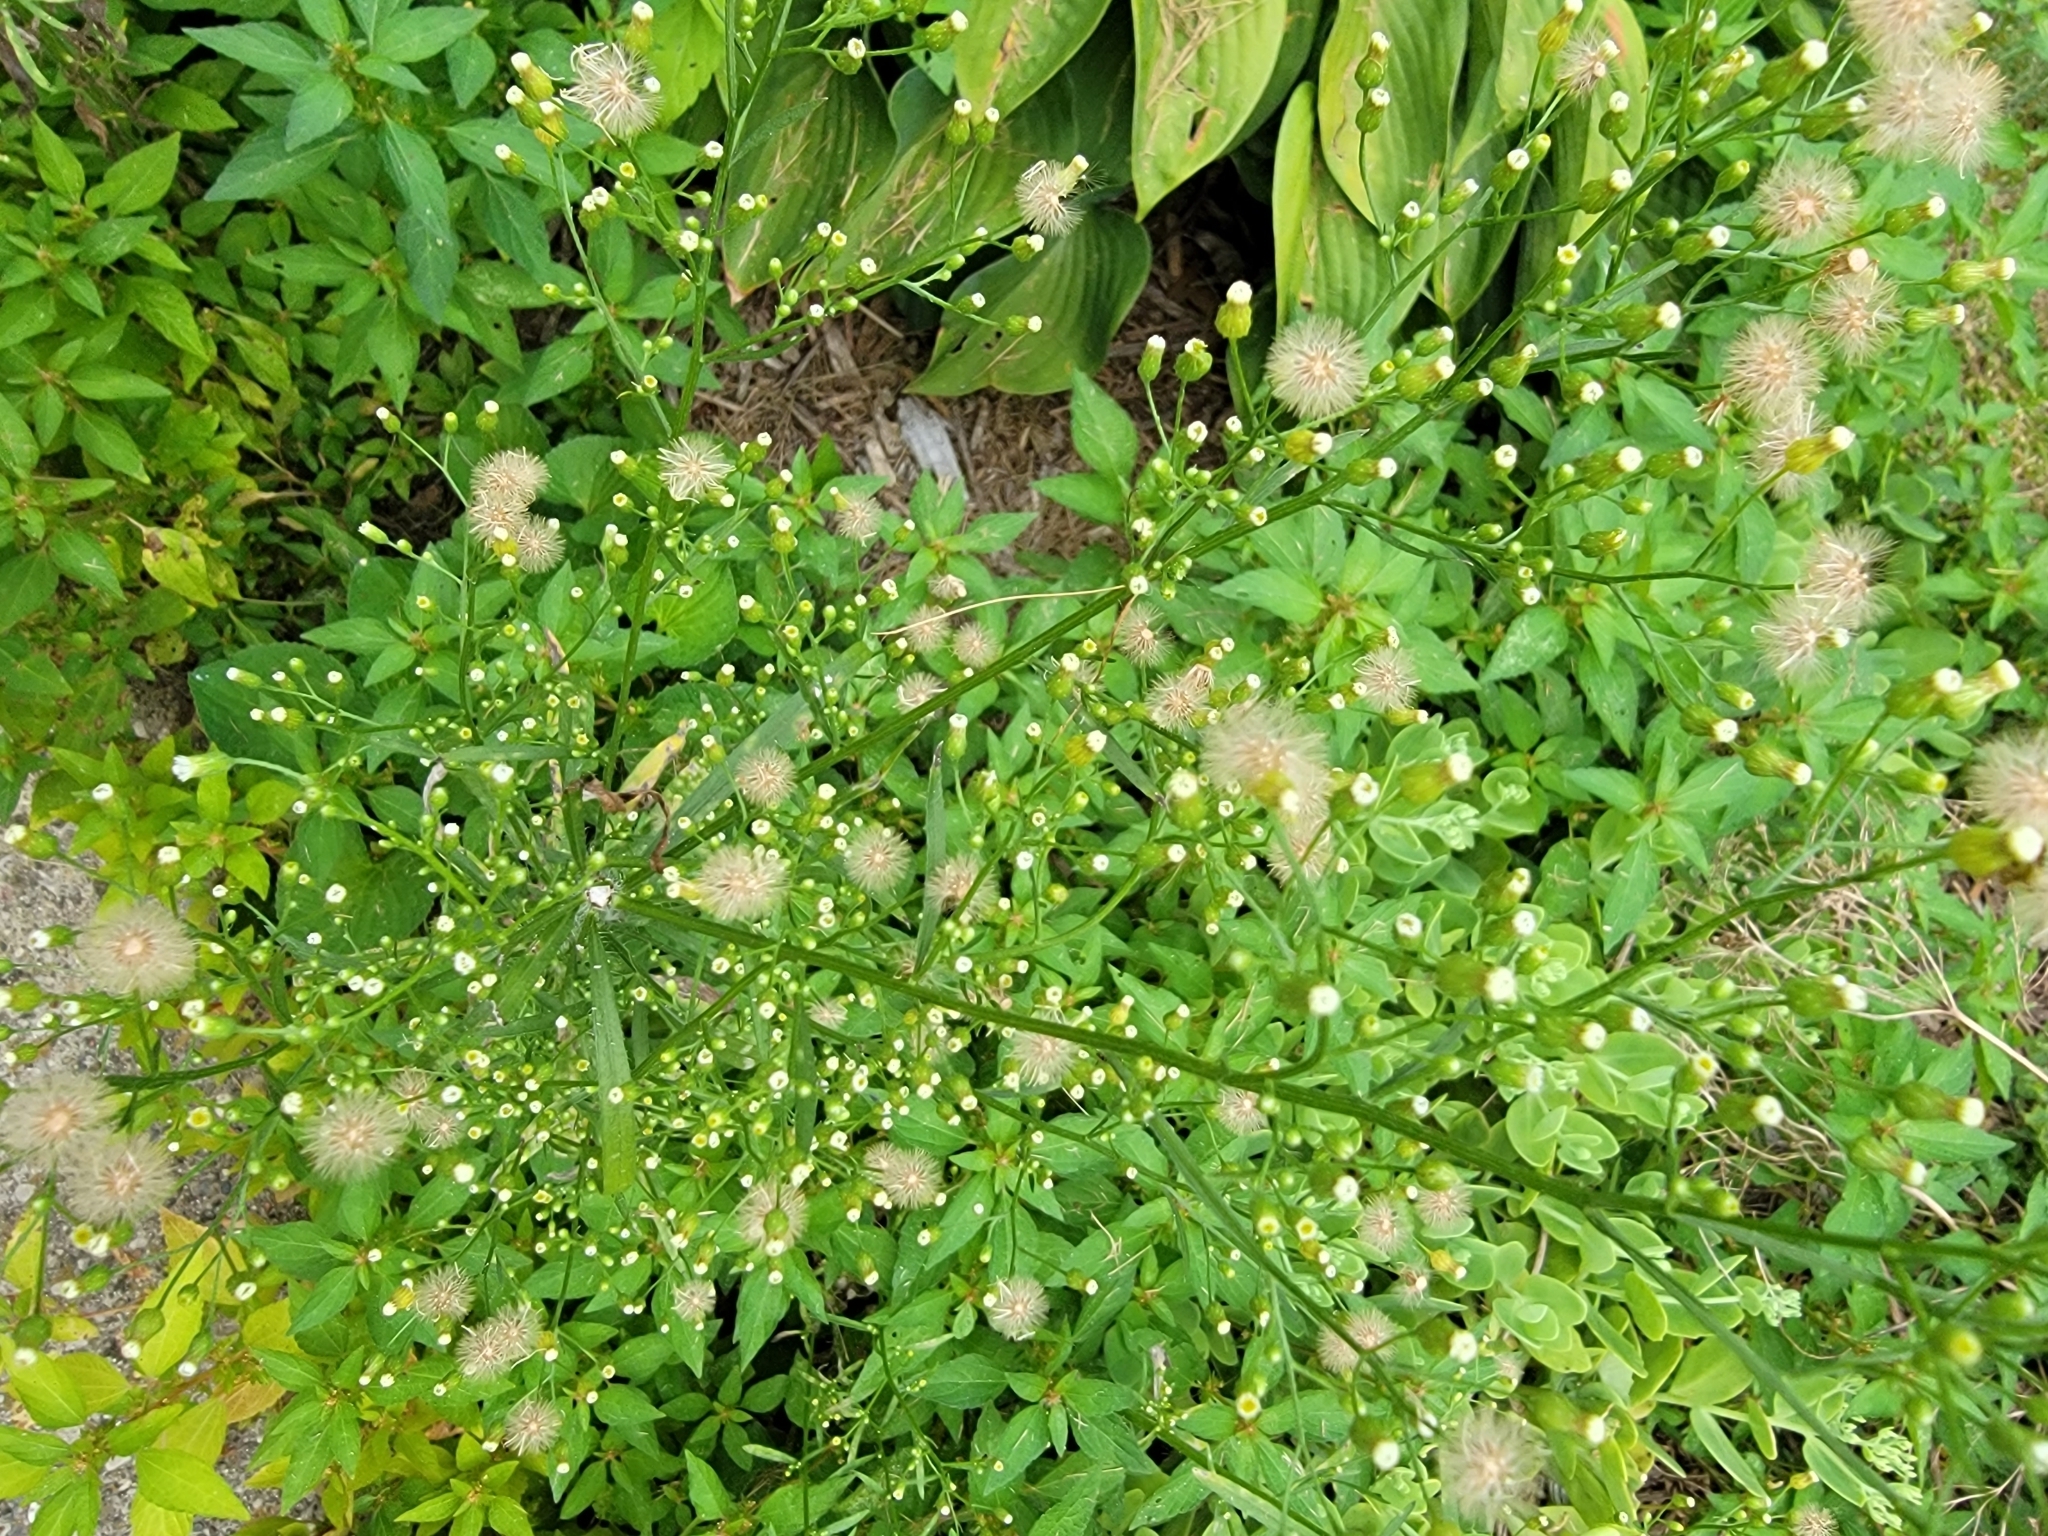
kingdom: Plantae
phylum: Tracheophyta
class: Magnoliopsida
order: Asterales
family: Asteraceae
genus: Erigeron
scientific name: Erigeron canadensis
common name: Canadian fleabane
